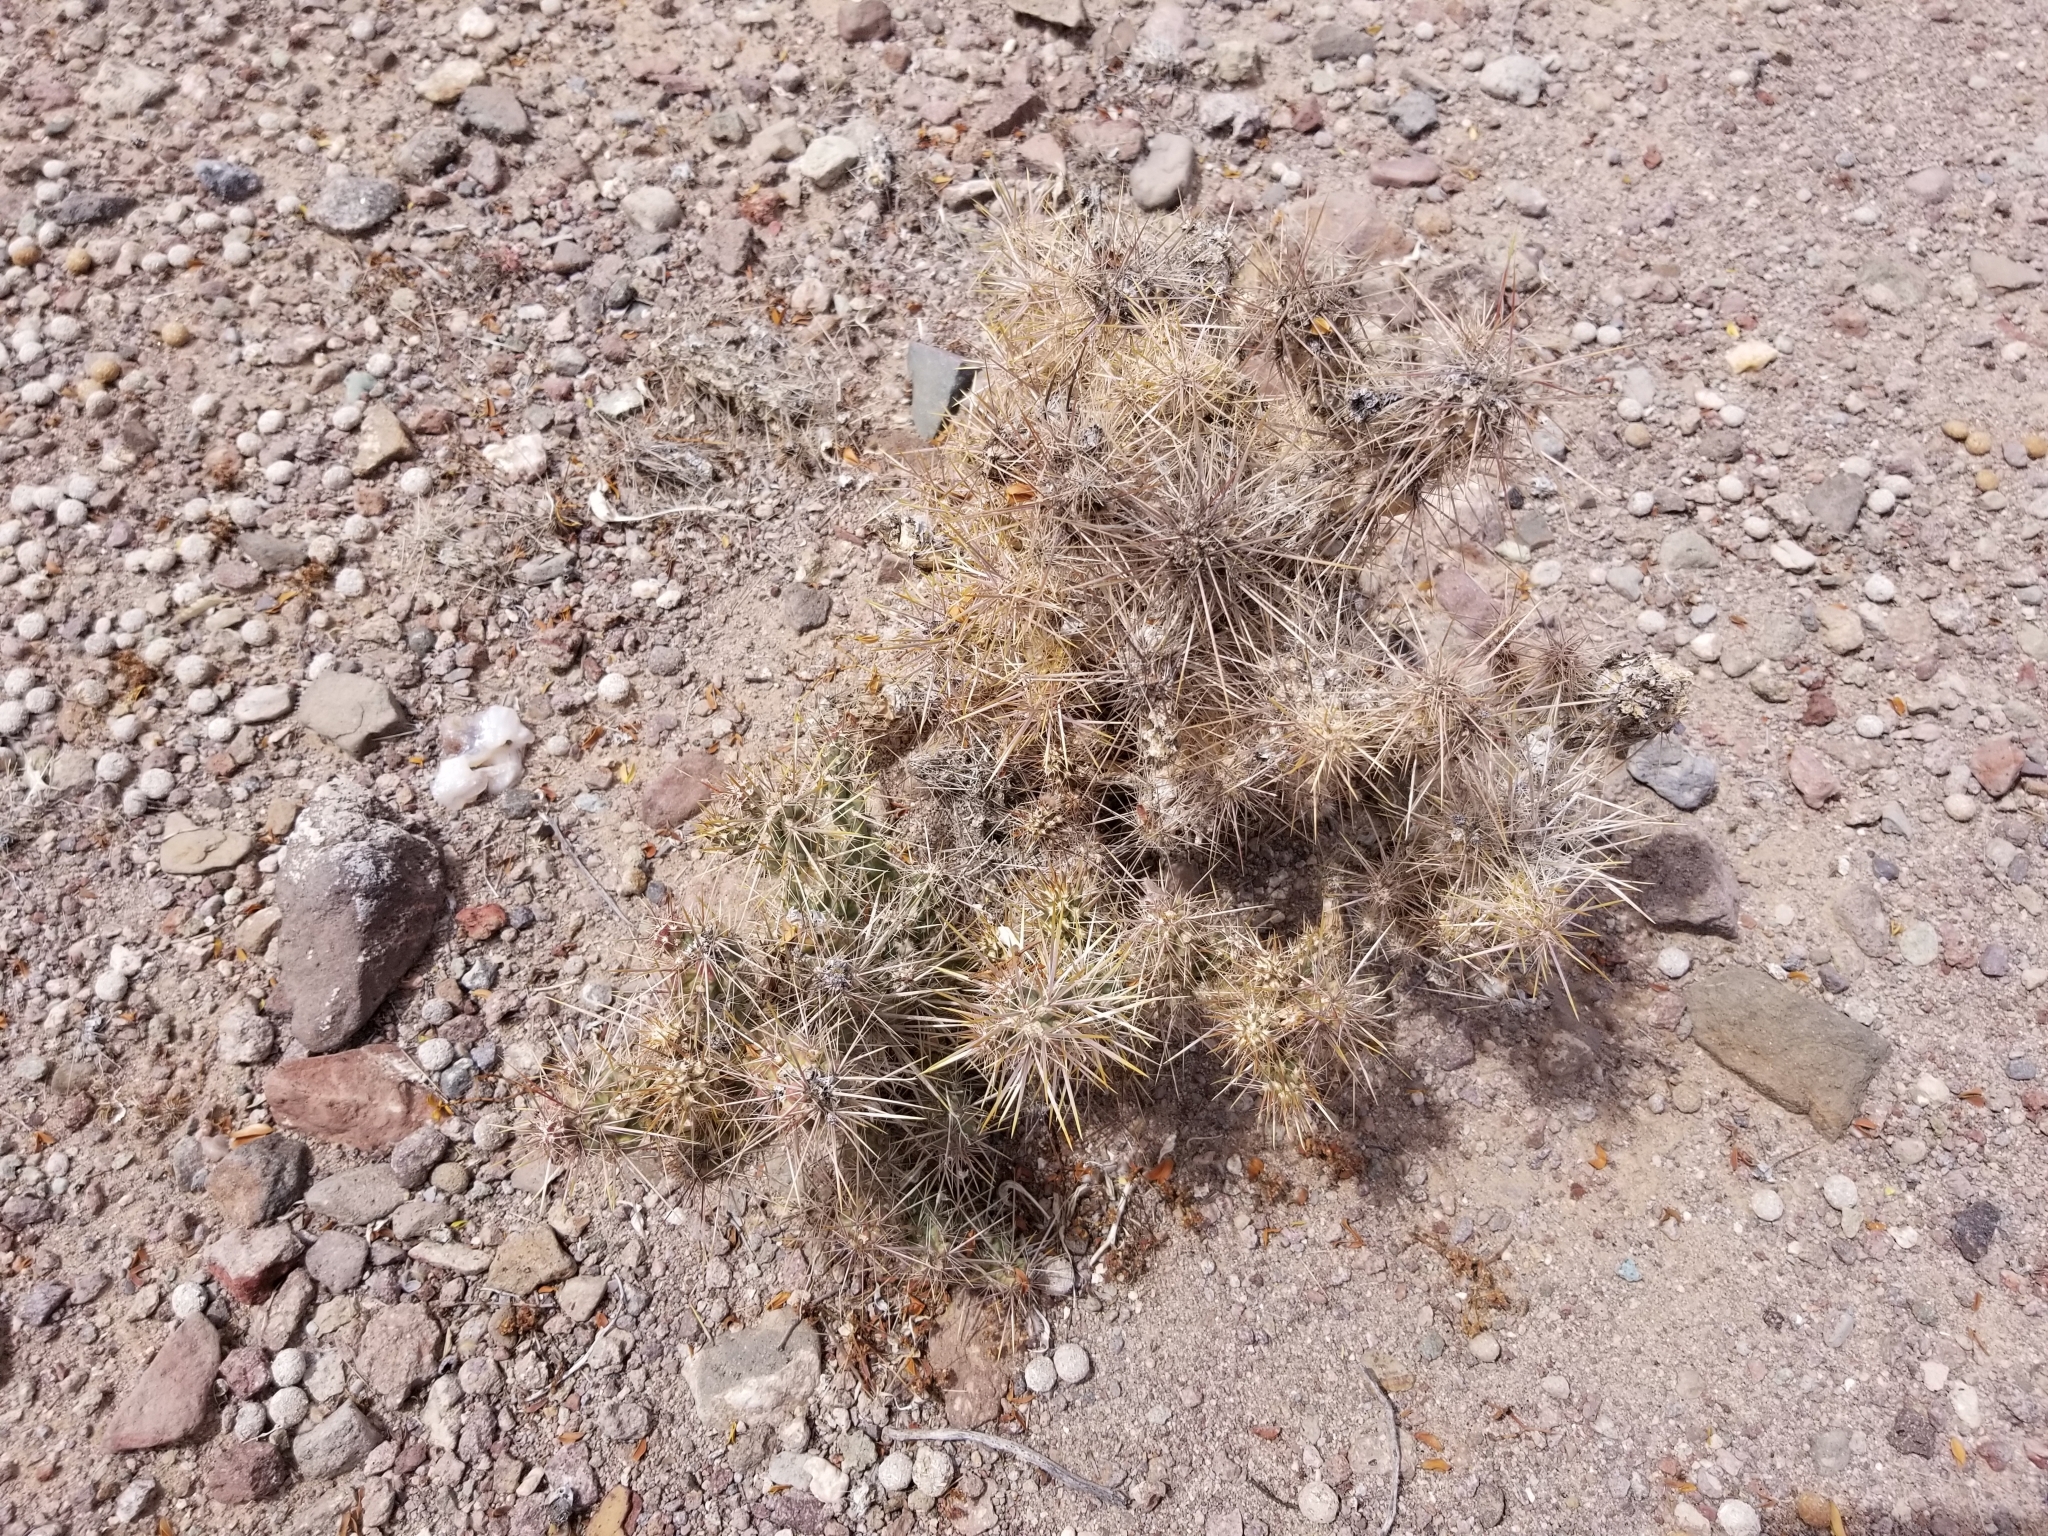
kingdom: Plantae
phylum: Tracheophyta
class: Magnoliopsida
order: Caryophyllales
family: Cactaceae
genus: Cylindropuntia
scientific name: Cylindropuntia echinocarpa
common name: Ground cholla
